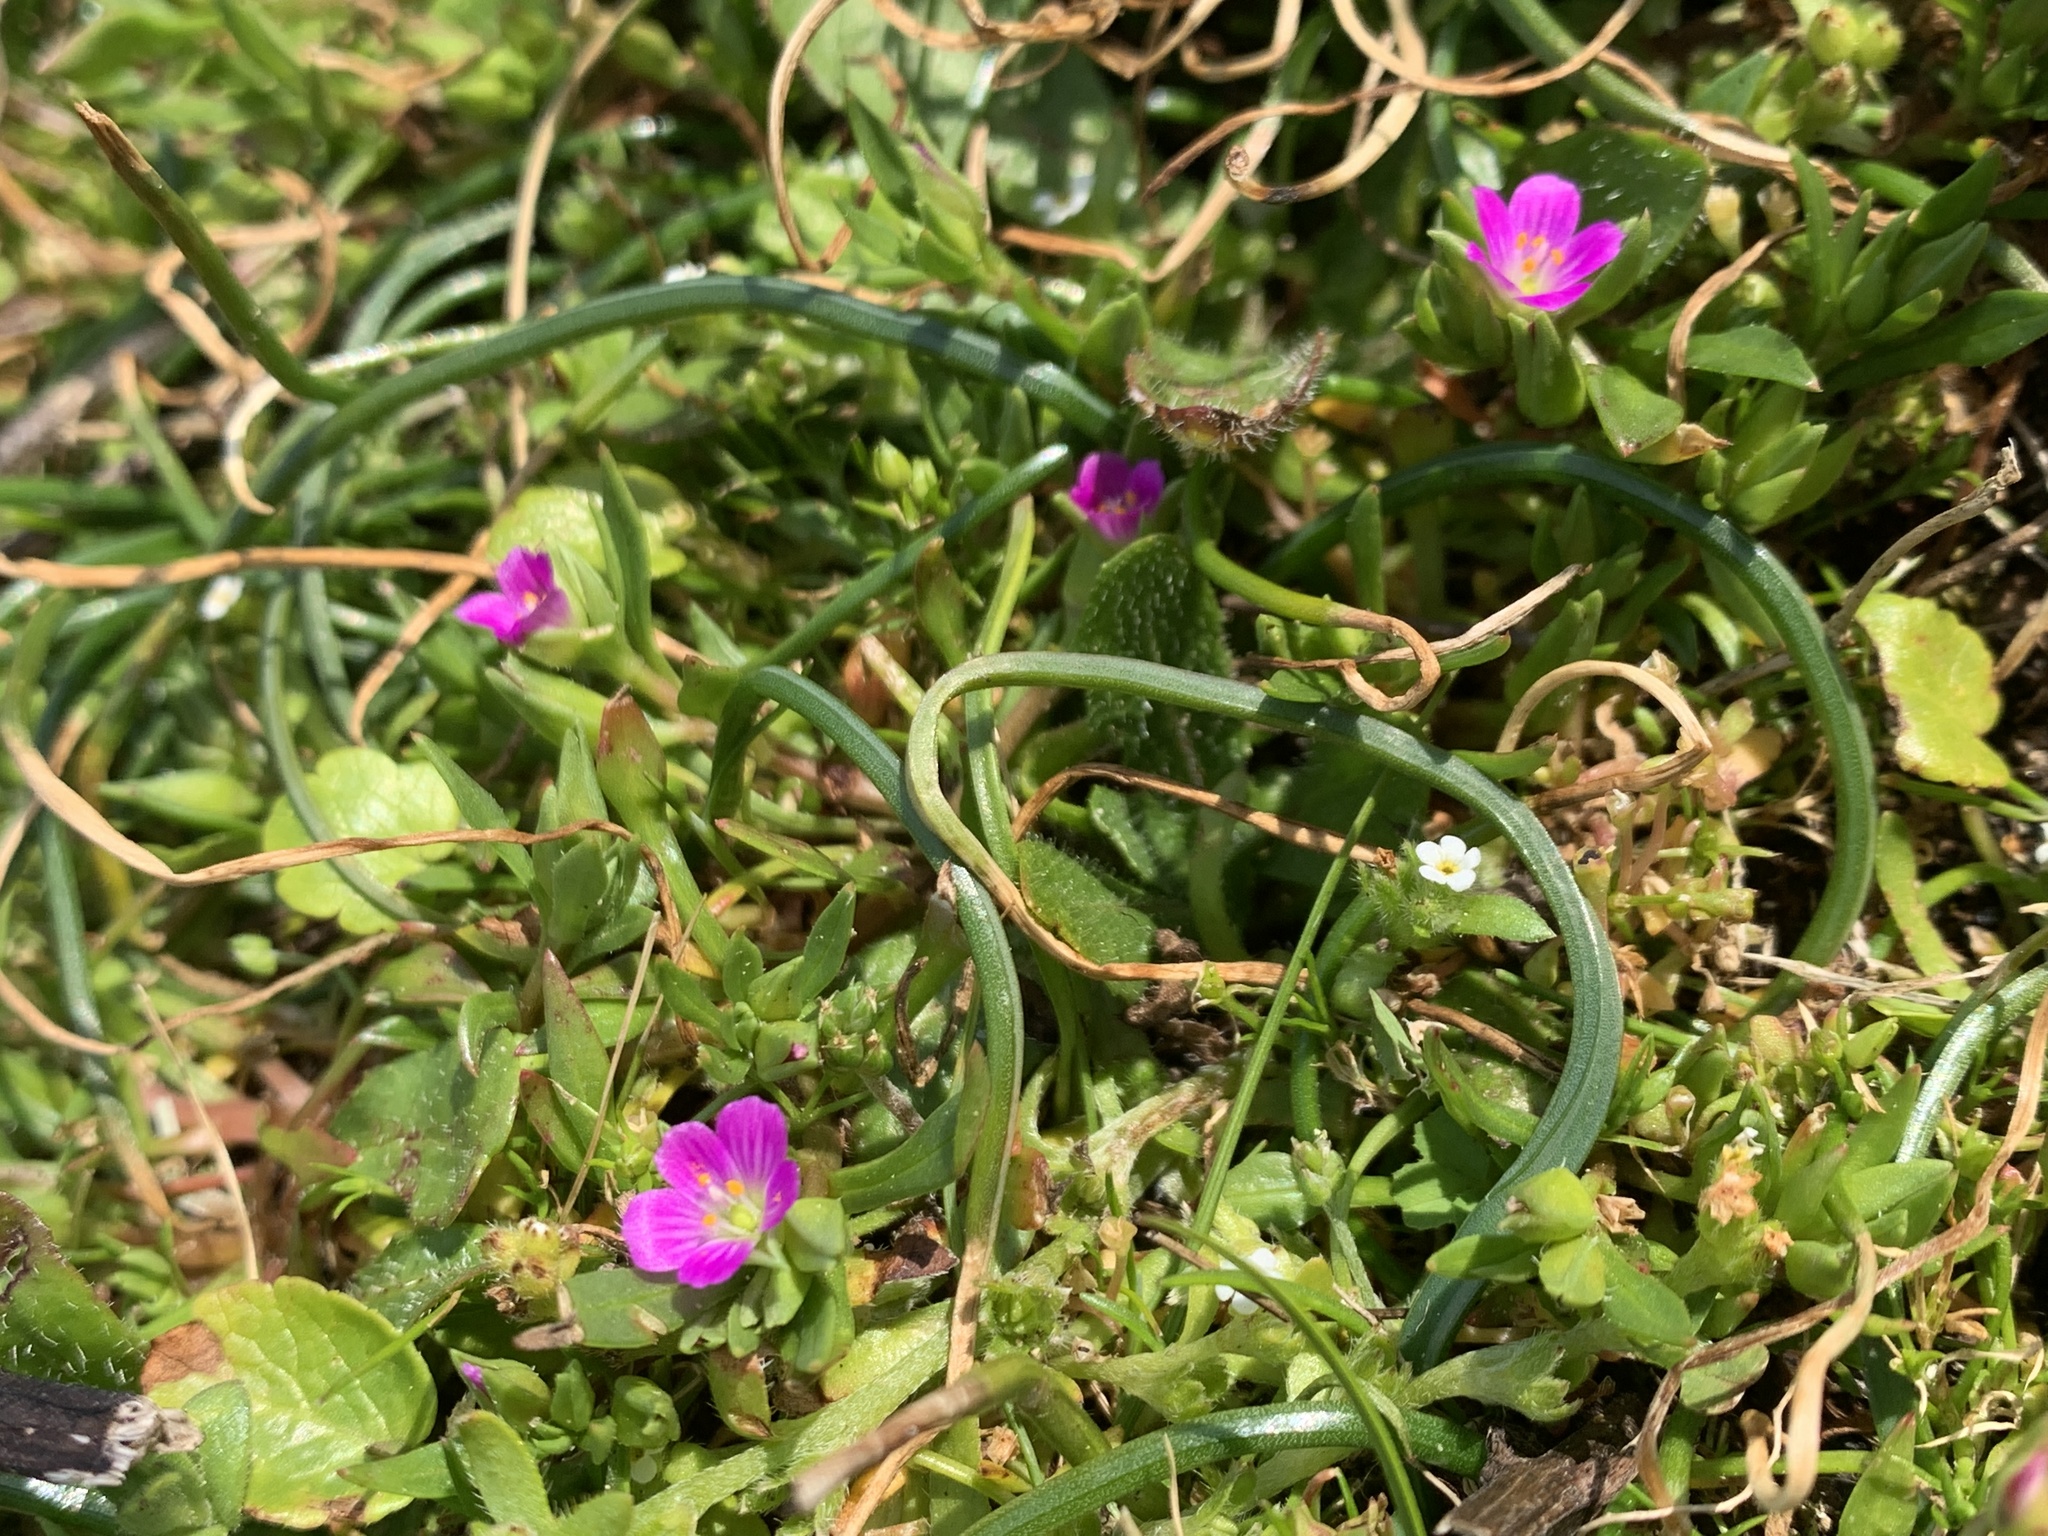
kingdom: Plantae
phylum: Tracheophyta
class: Magnoliopsida
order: Caryophyllales
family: Montiaceae
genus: Calandrinia
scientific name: Calandrinia menziesii
